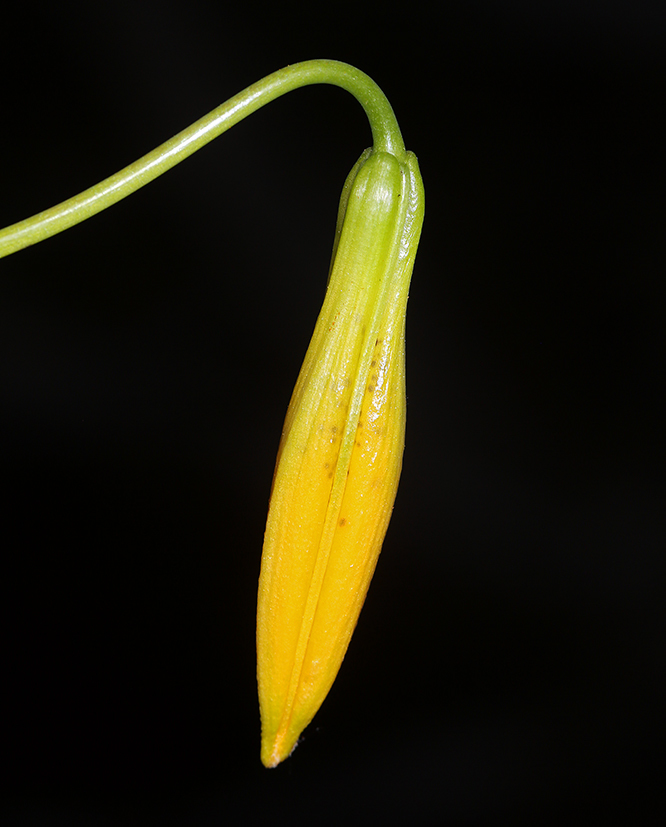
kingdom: Plantae
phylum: Tracheophyta
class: Liliopsida
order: Liliales
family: Liliaceae
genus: Lilium
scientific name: Lilium kelleyanum
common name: Kelley's lily
